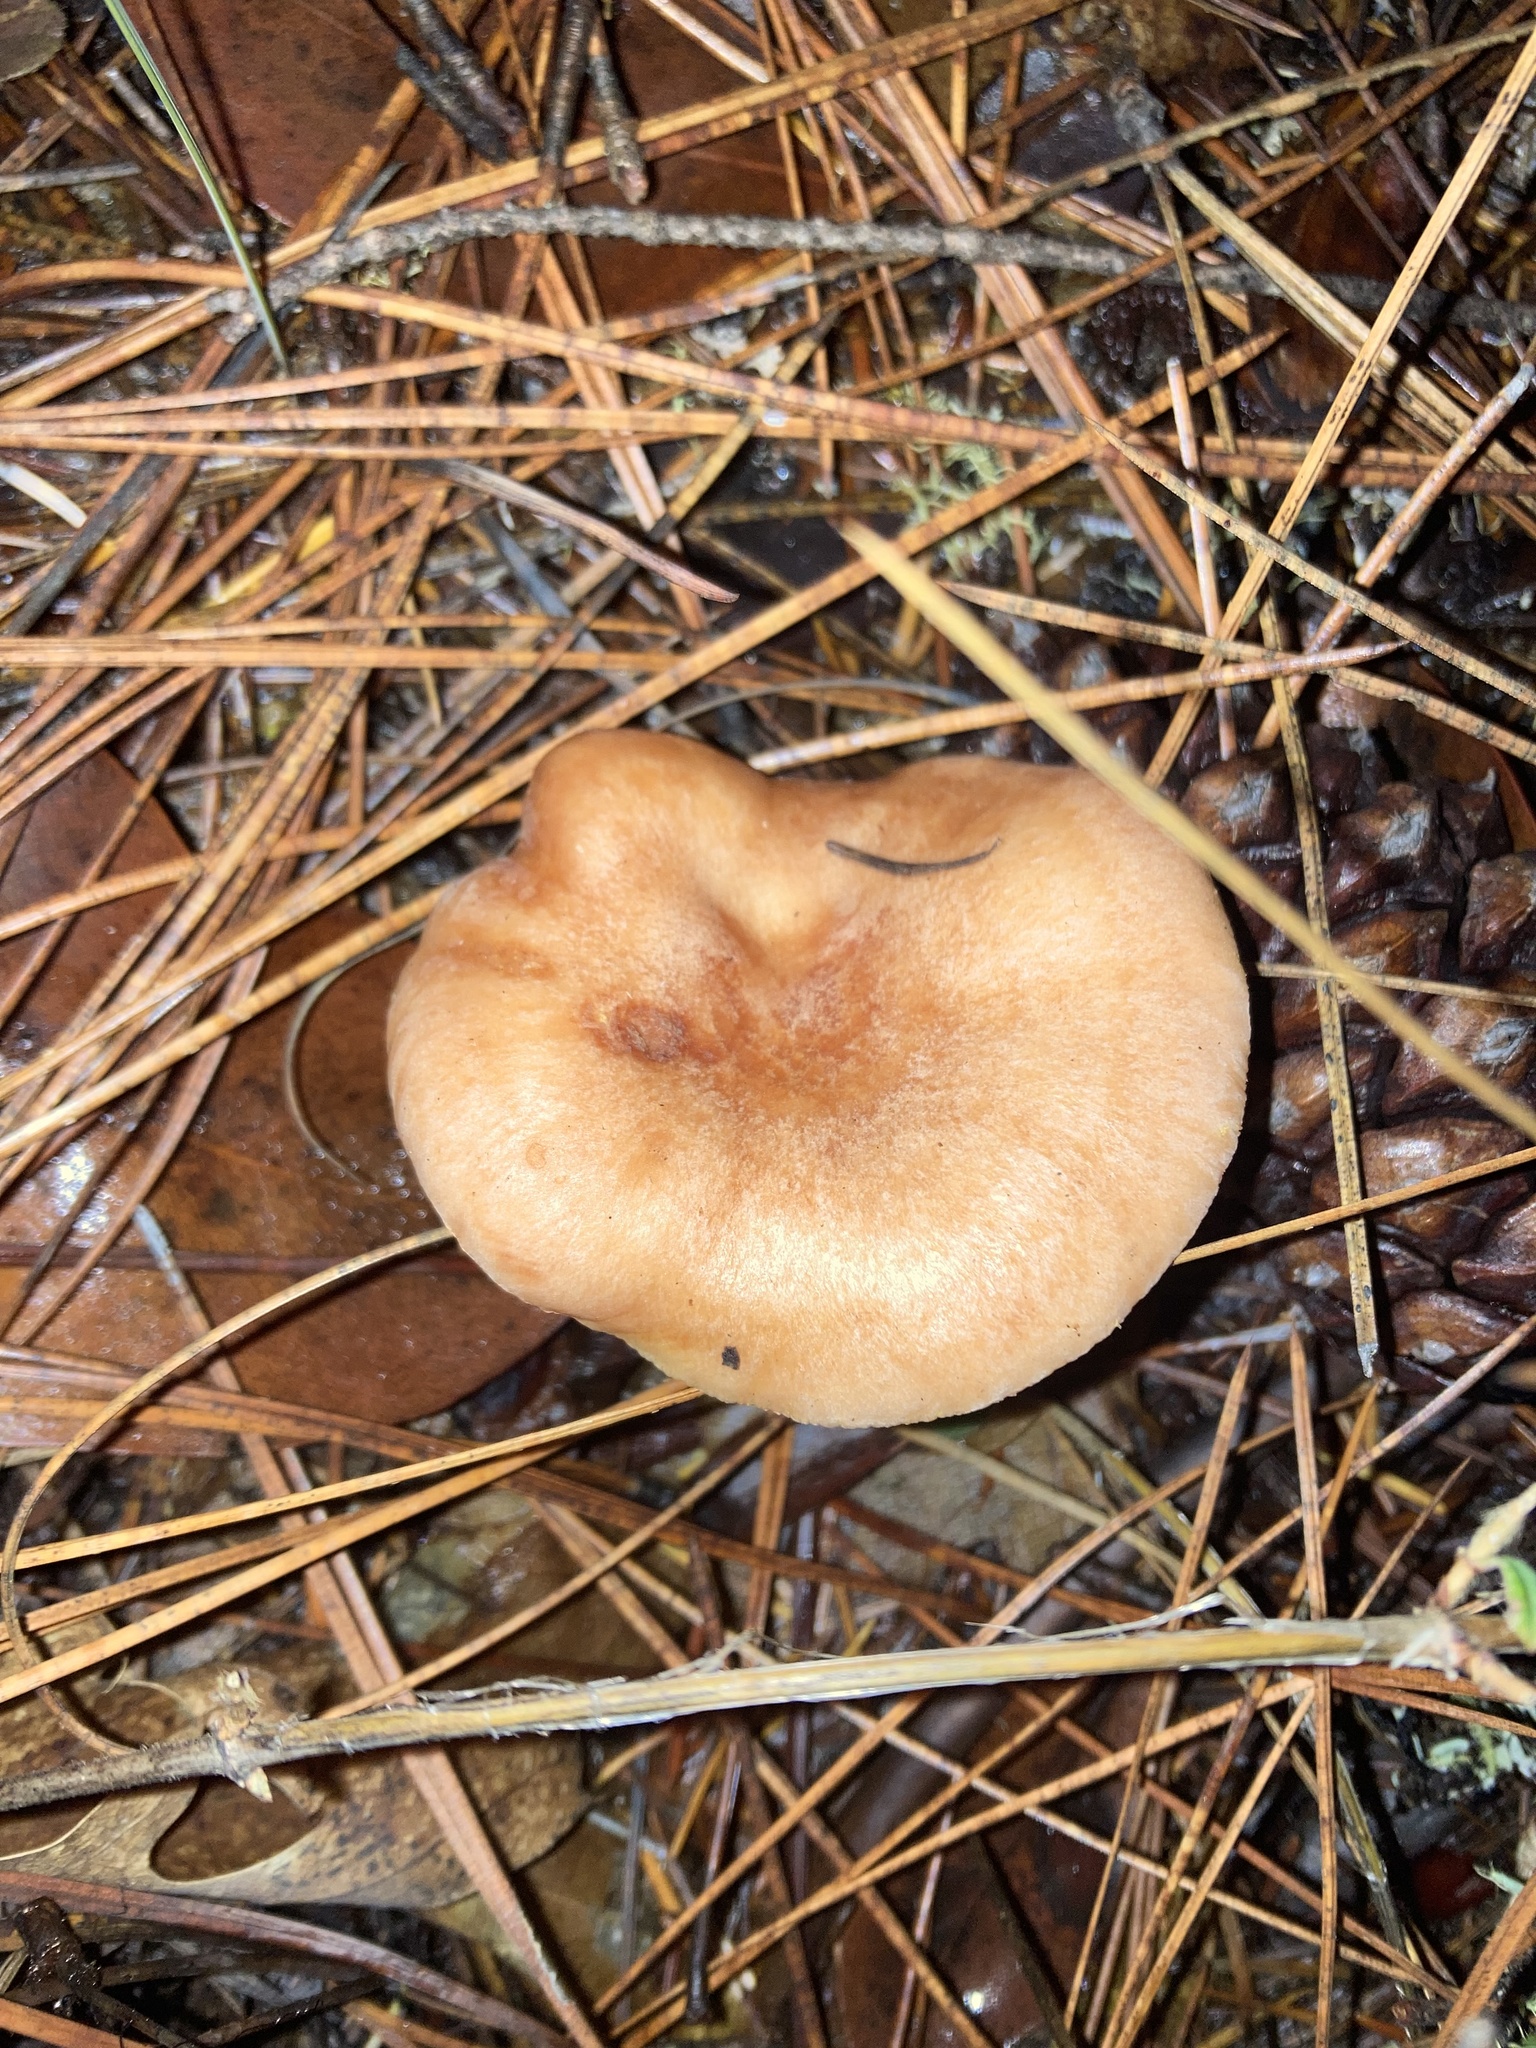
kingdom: Fungi
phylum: Basidiomycota
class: Agaricomycetes
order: Russulales
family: Russulaceae
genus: Lactarius
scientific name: Lactarius chrysorrheus
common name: Yellowdrop milkcap
